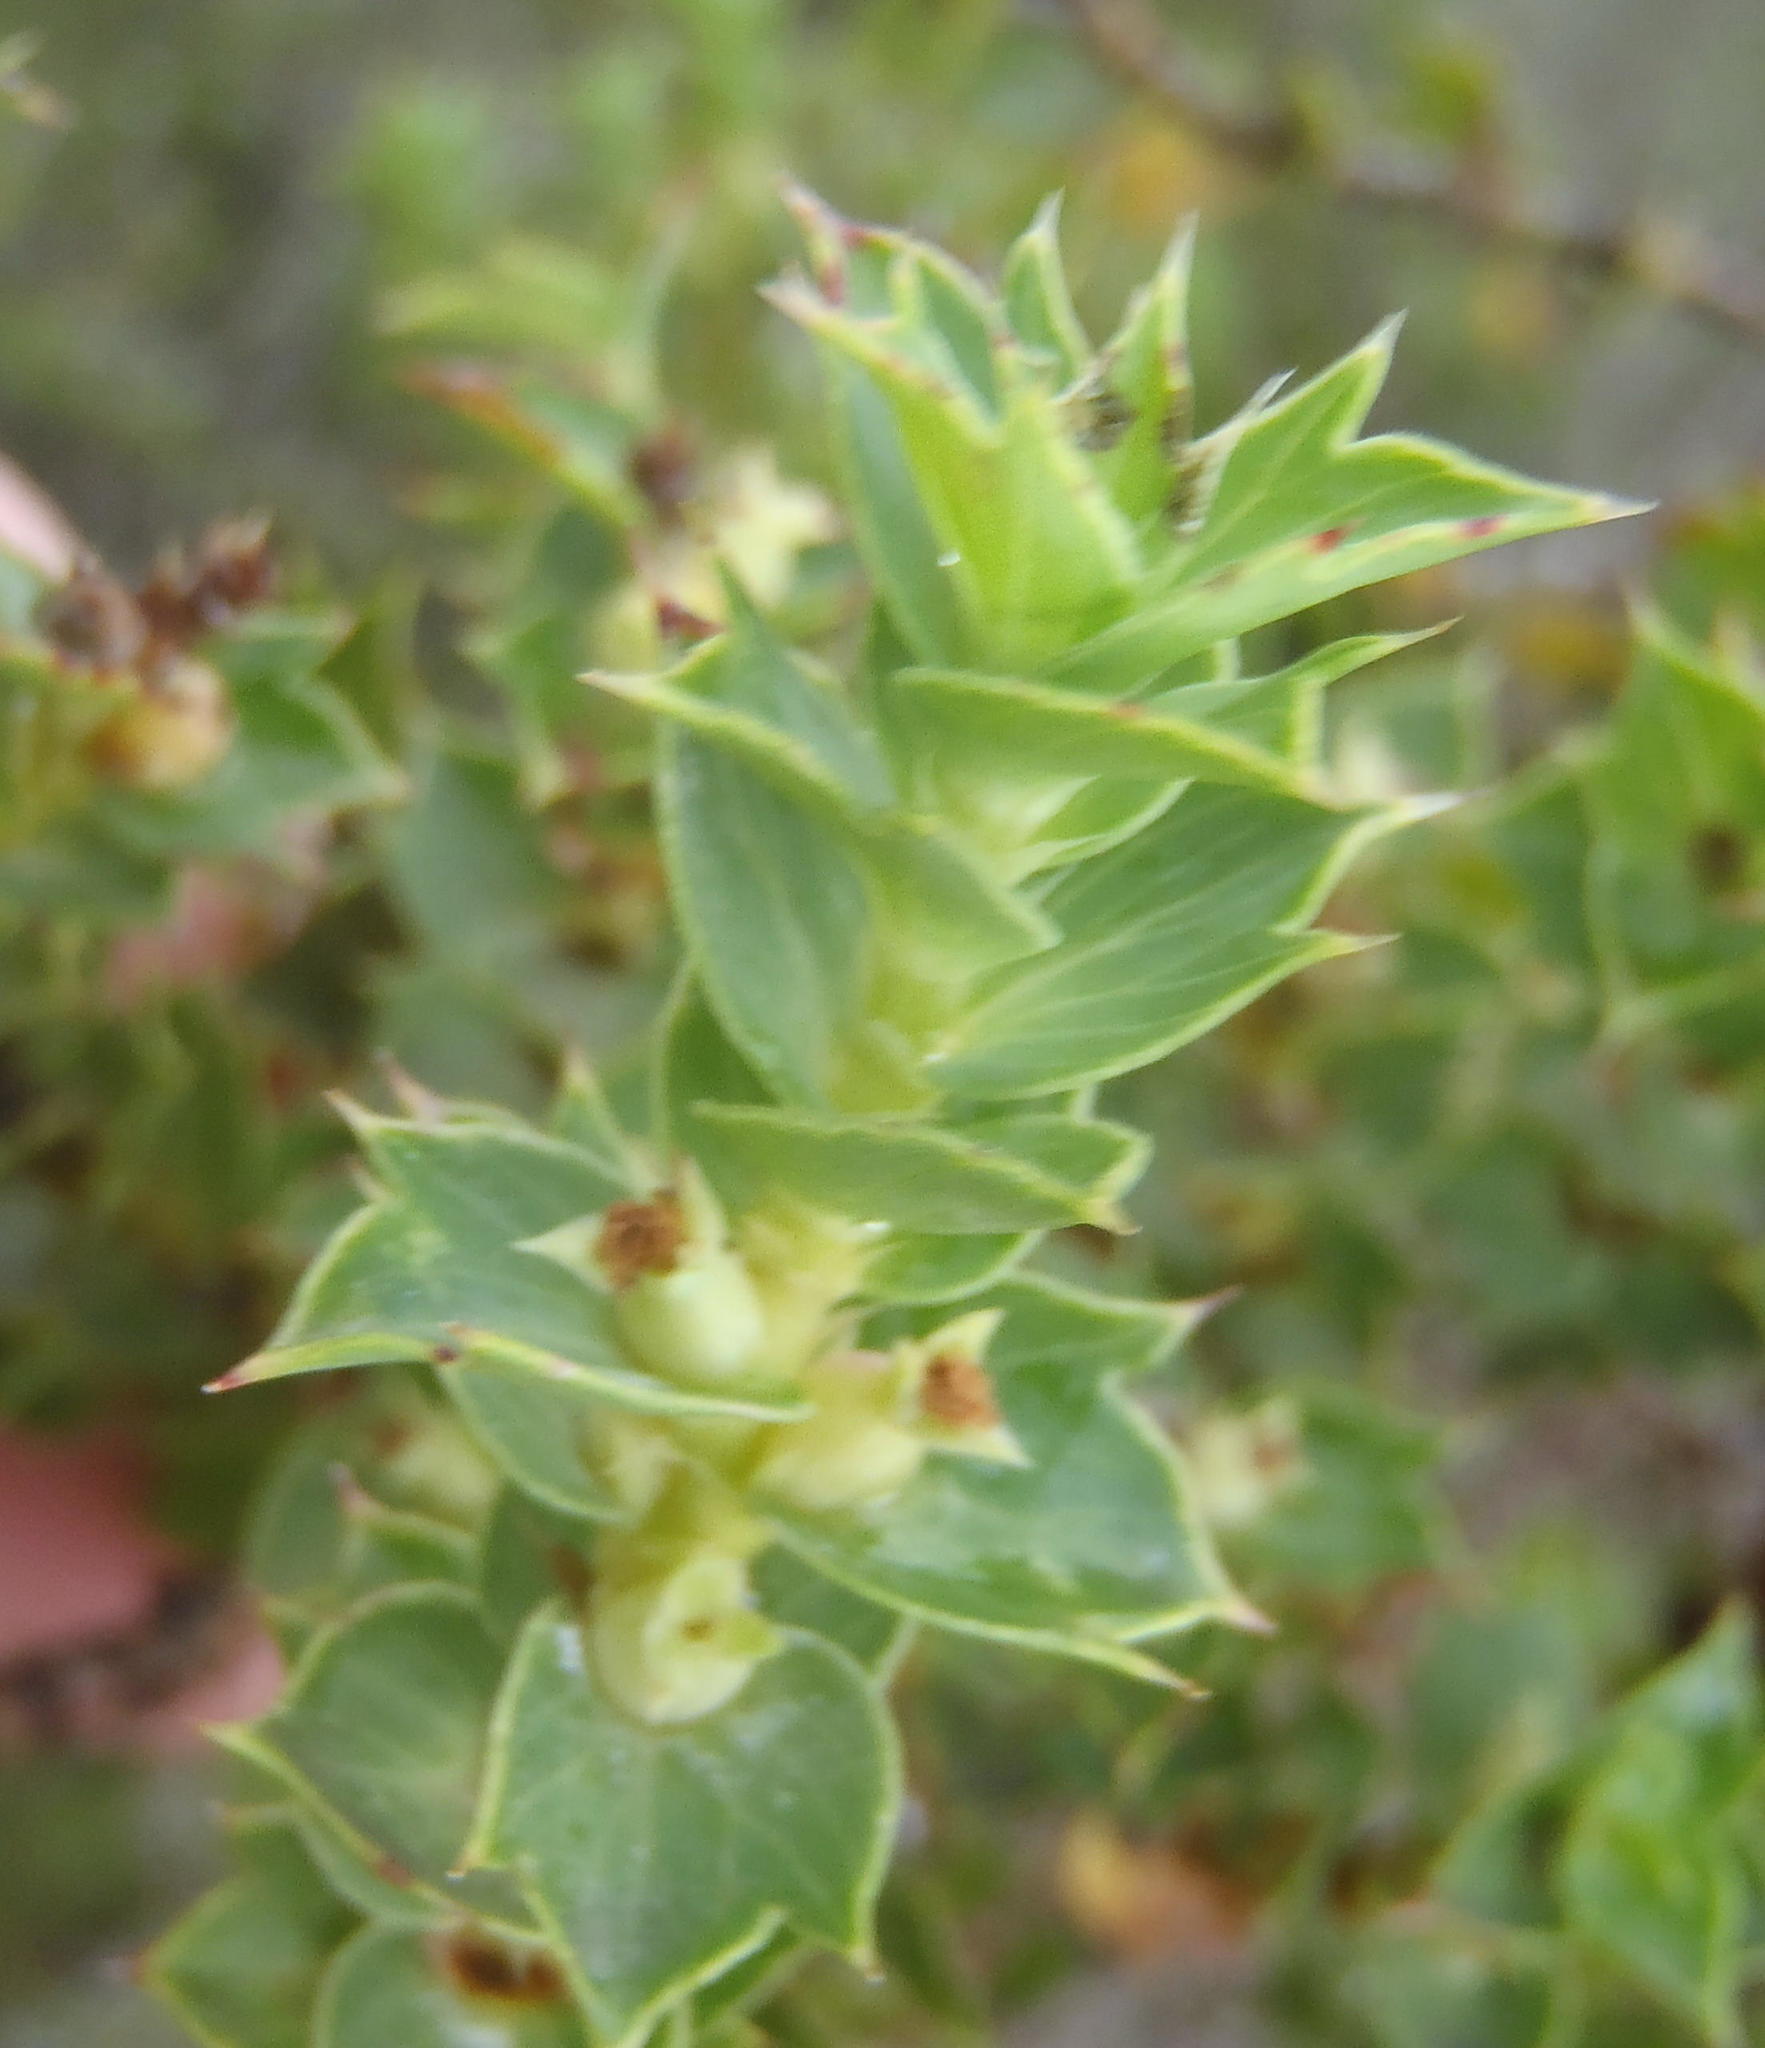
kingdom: Plantae
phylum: Tracheophyta
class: Magnoliopsida
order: Rosales
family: Rosaceae
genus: Cliffortia
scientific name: Cliffortia ilicifolia
